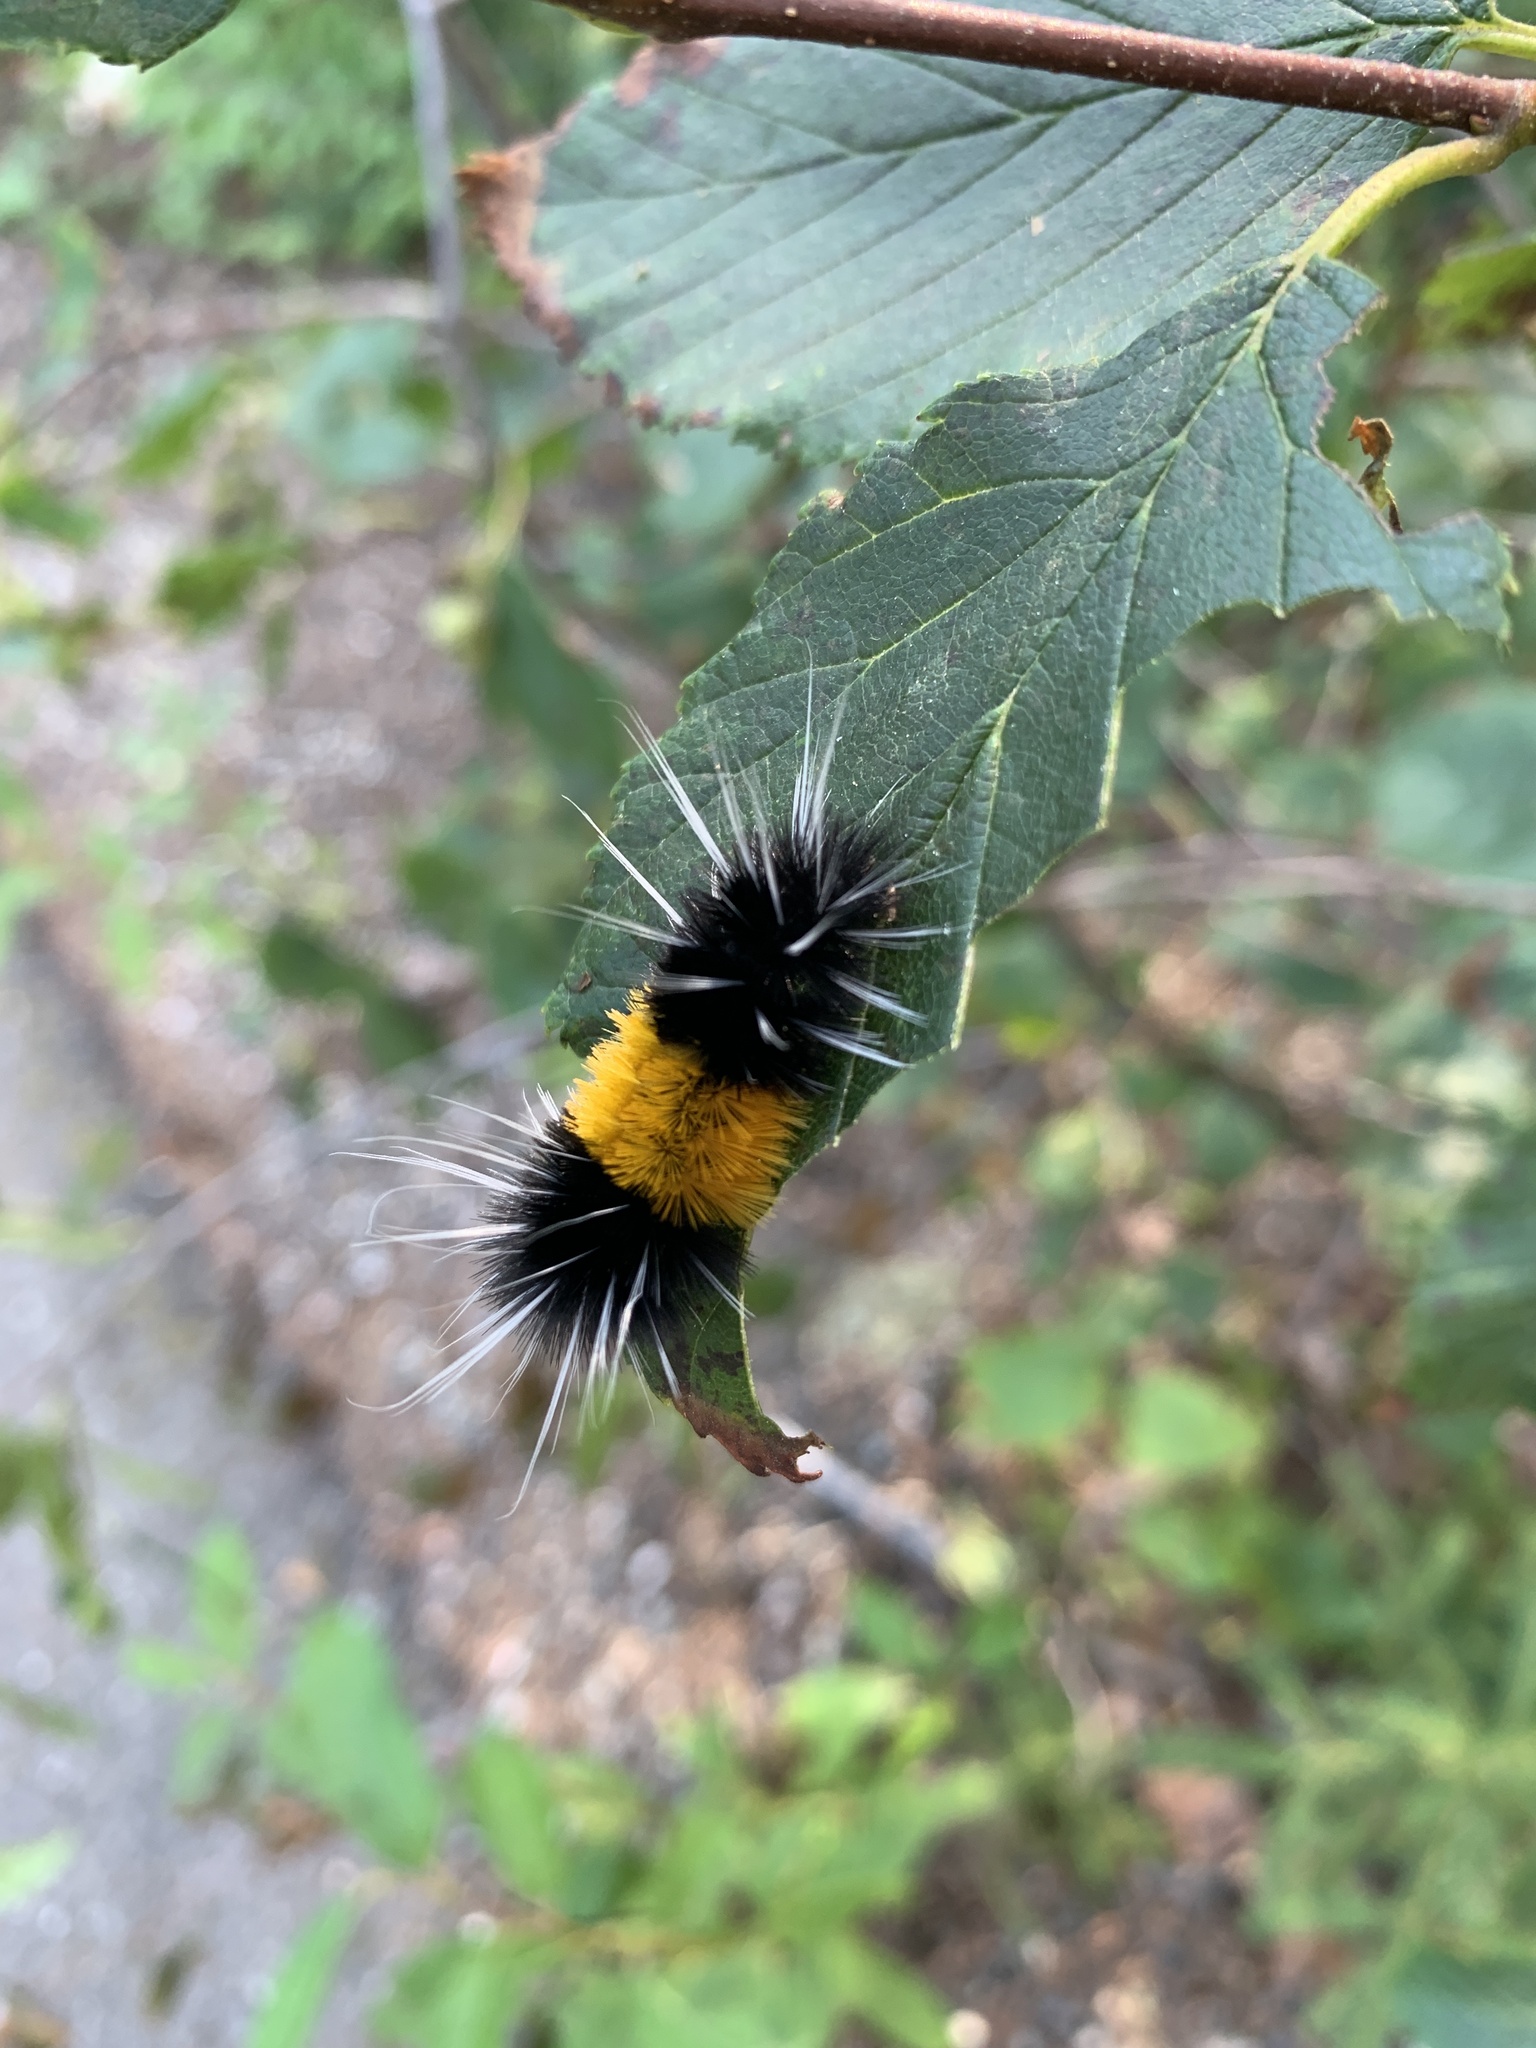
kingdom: Animalia
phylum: Arthropoda
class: Insecta
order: Lepidoptera
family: Erebidae
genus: Lophocampa
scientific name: Lophocampa maculata
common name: Spotted tussock moth
